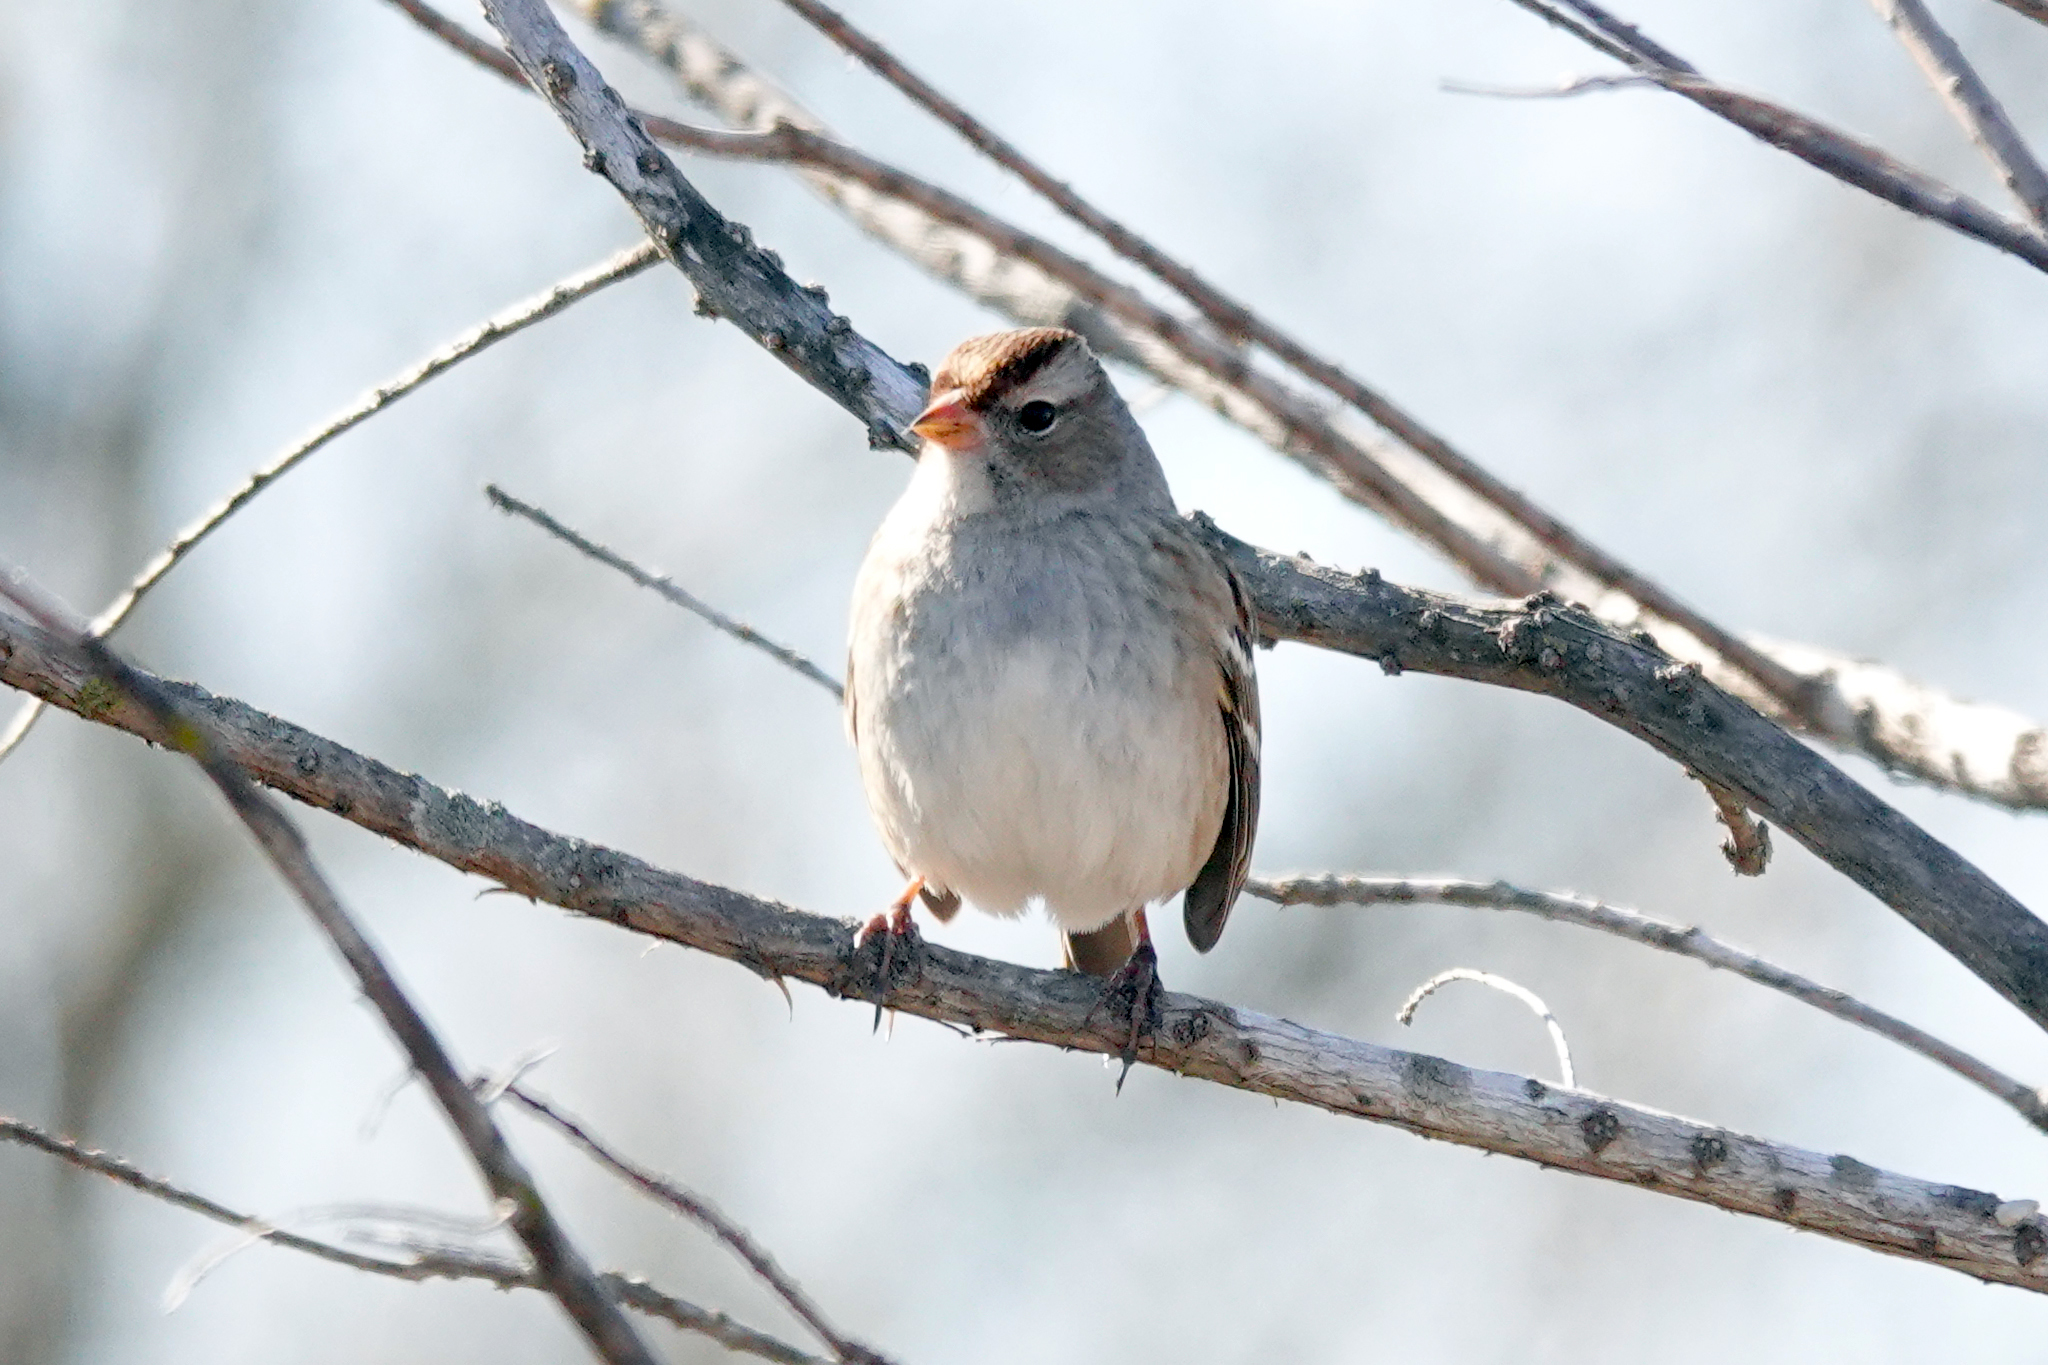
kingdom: Animalia
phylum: Chordata
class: Aves
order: Passeriformes
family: Passerellidae
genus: Zonotrichia
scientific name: Zonotrichia leucophrys
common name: White-crowned sparrow
